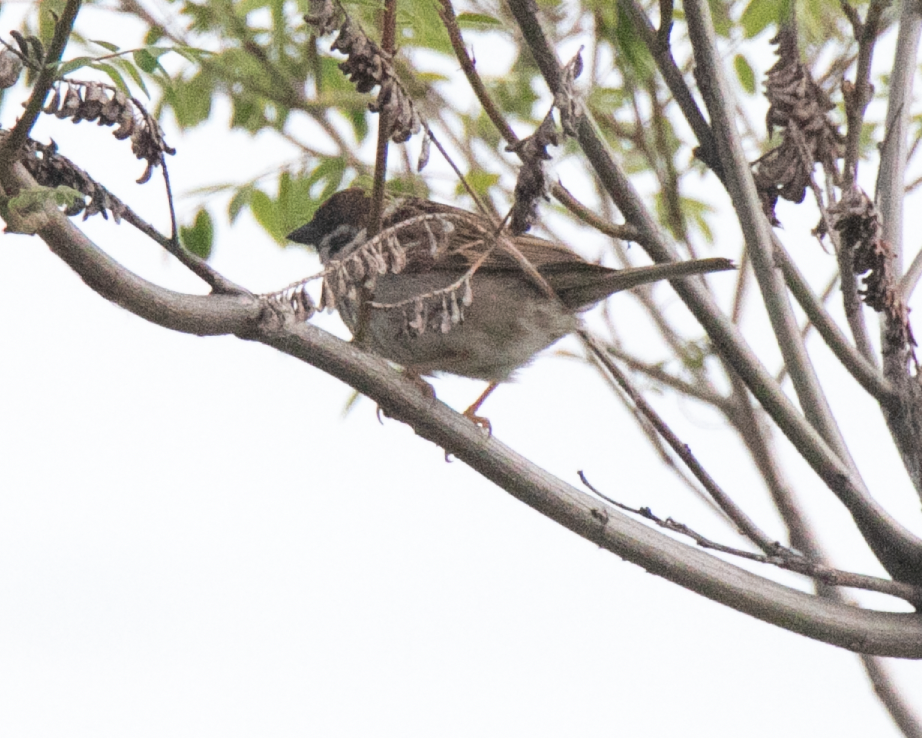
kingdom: Animalia
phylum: Chordata
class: Aves
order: Passeriformes
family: Passeridae
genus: Passer
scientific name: Passer montanus
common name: Eurasian tree sparrow
